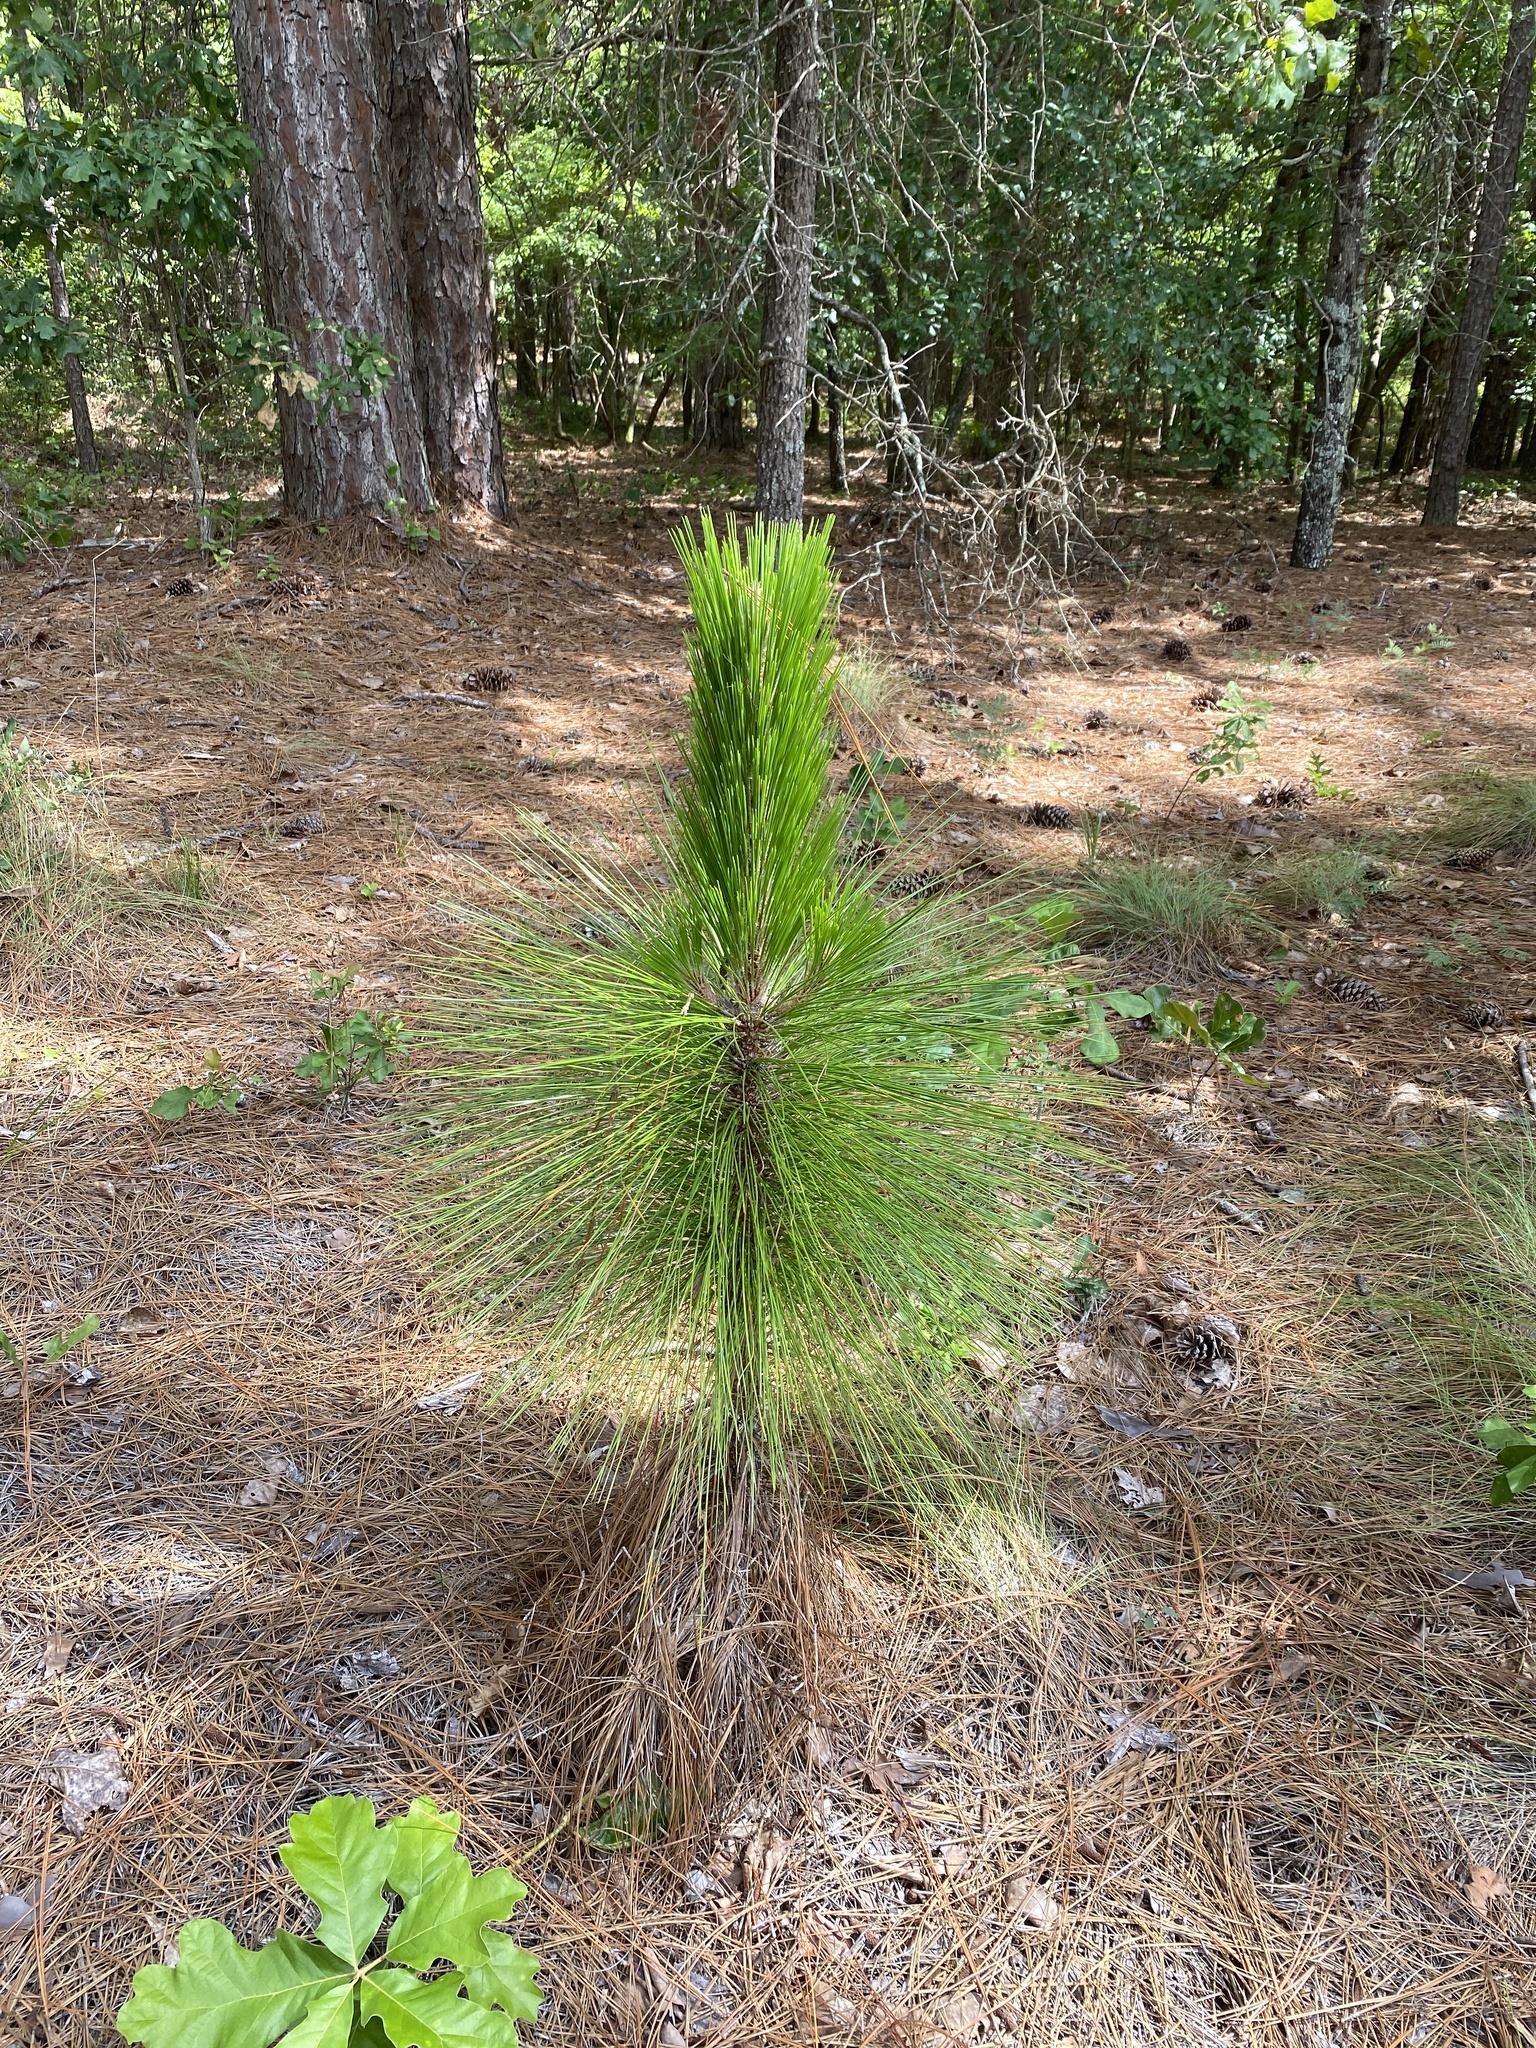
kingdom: Plantae
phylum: Tracheophyta
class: Pinopsida
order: Pinales
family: Pinaceae
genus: Pinus
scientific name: Pinus palustris
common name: Longleaf pine
